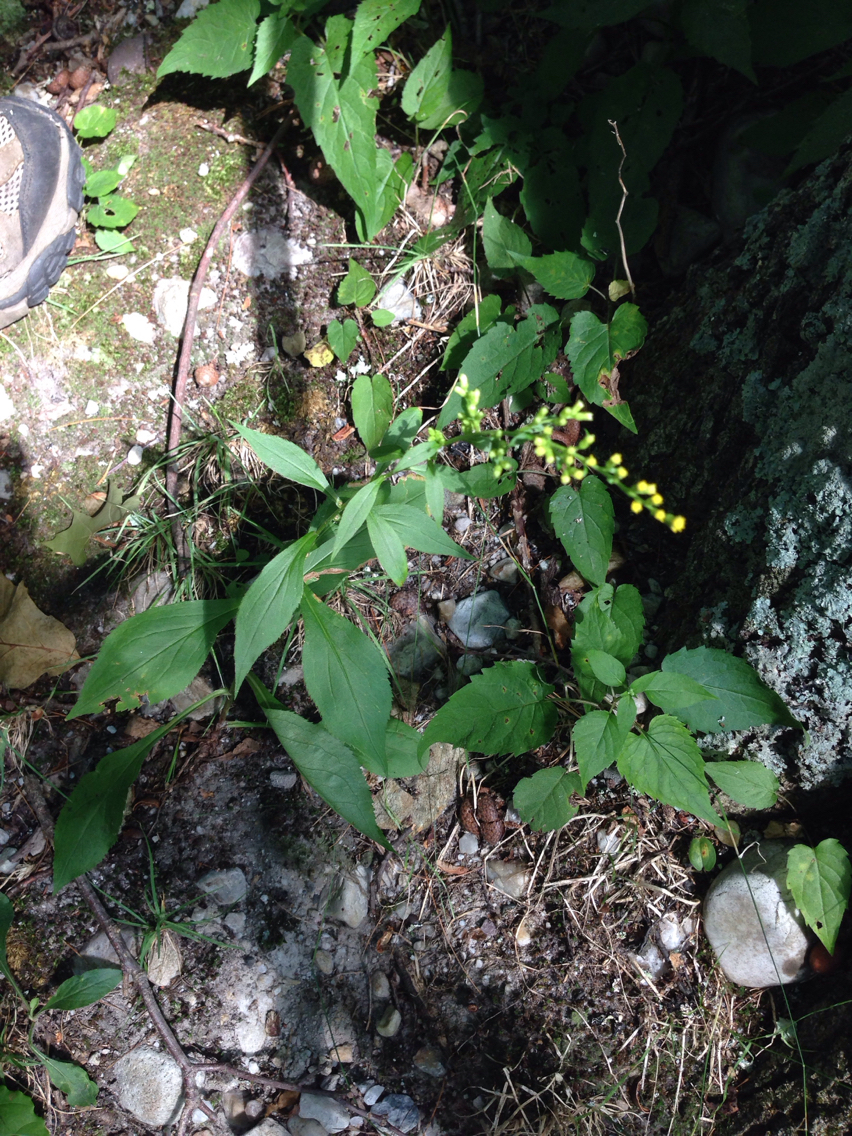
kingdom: Plantae
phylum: Tracheophyta
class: Magnoliopsida
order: Asterales
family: Asteraceae
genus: Solidago
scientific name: Solidago arguta
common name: Atlantic goldenrod
